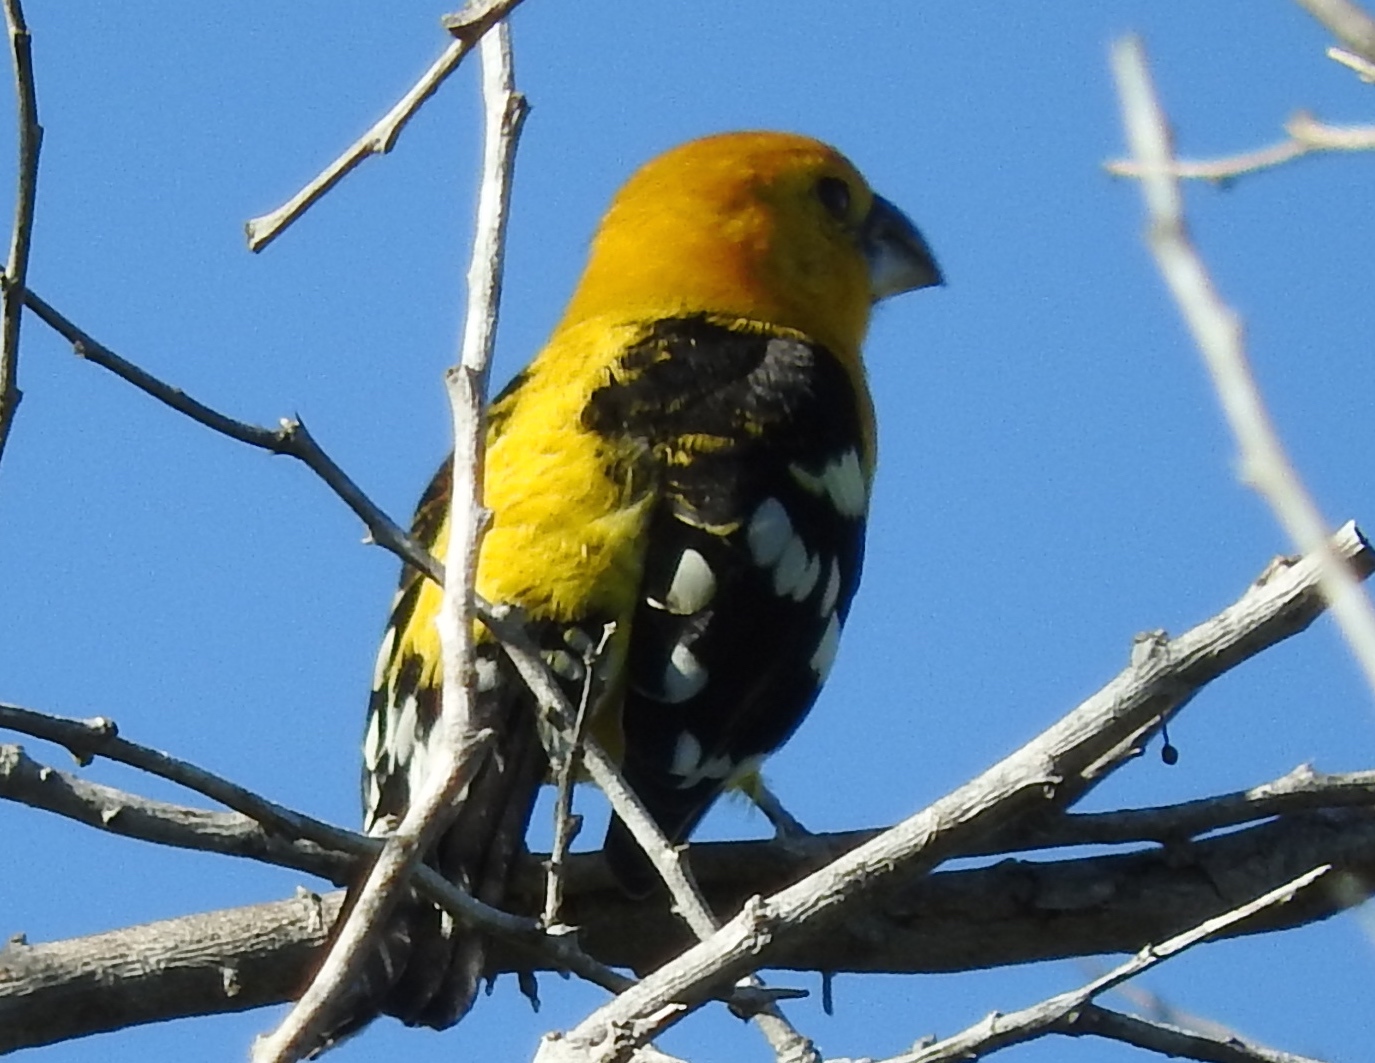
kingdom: Animalia
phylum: Chordata
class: Aves
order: Passeriformes
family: Cardinalidae
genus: Pheucticus
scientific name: Pheucticus chrysopeplus
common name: Yellow grosbeak
